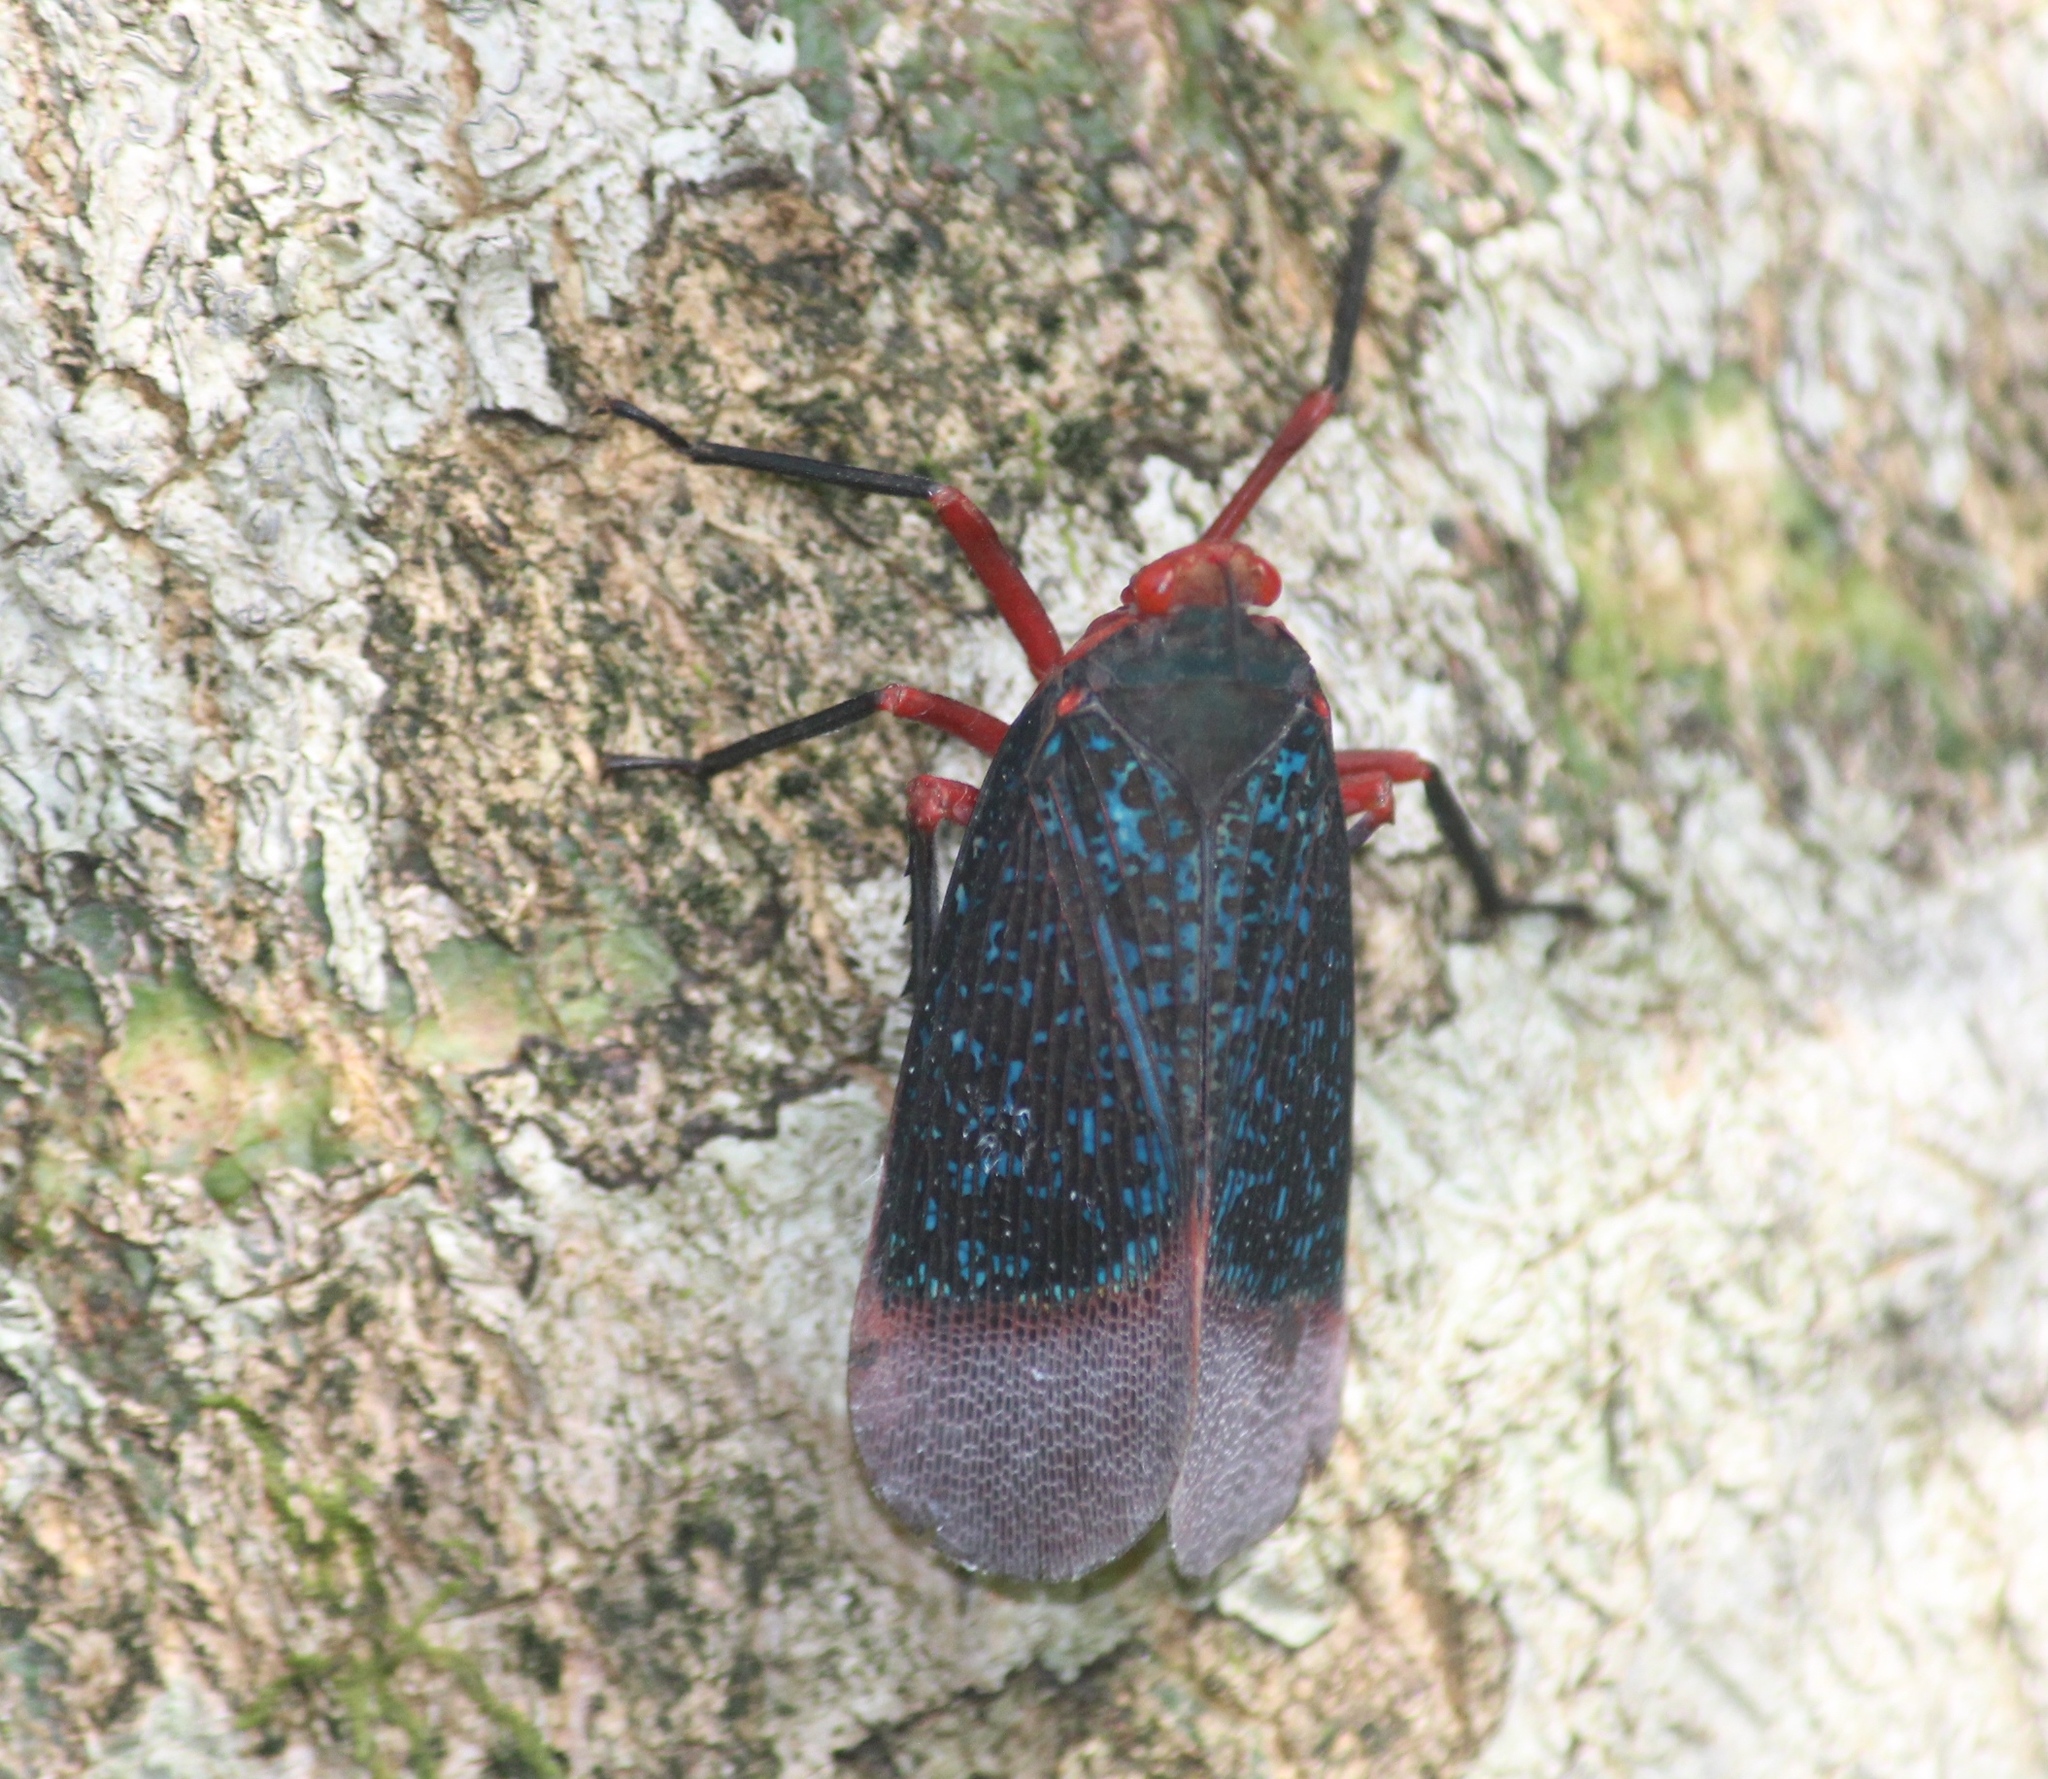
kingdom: Animalia
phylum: Arthropoda
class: Insecta
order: Hemiptera
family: Fulgoridae
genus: Kalidasa
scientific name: Kalidasa lanata
